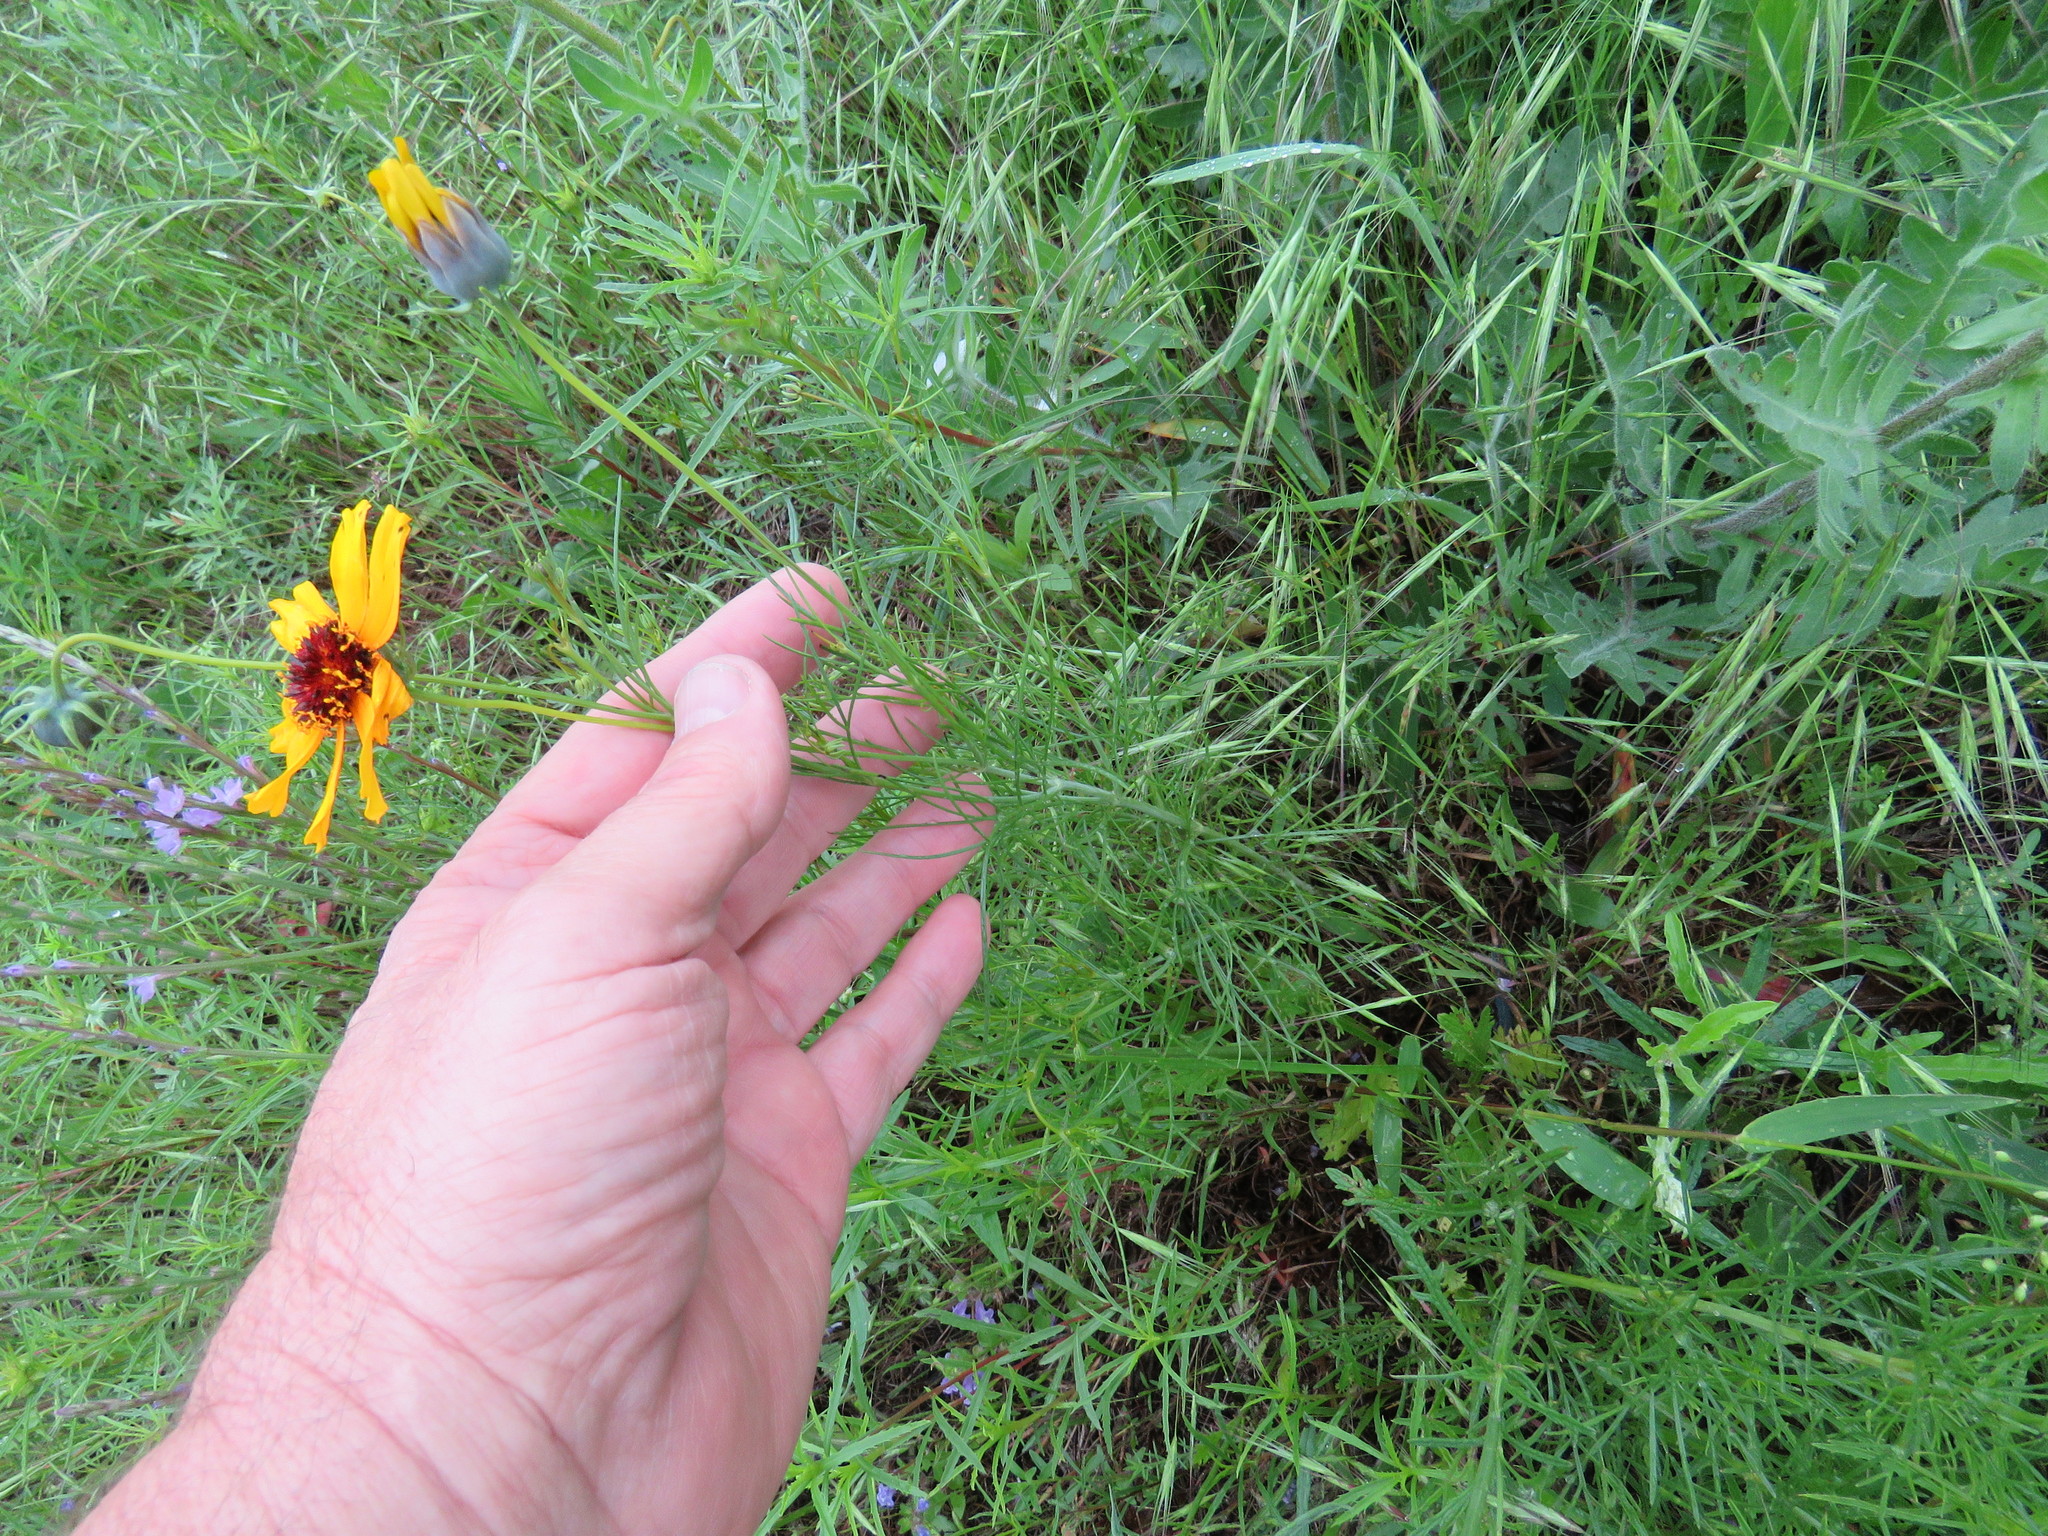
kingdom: Plantae
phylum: Tracheophyta
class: Magnoliopsida
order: Asterales
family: Asteraceae
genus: Thelesperma
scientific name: Thelesperma filifolium
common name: Stiff greenthread
